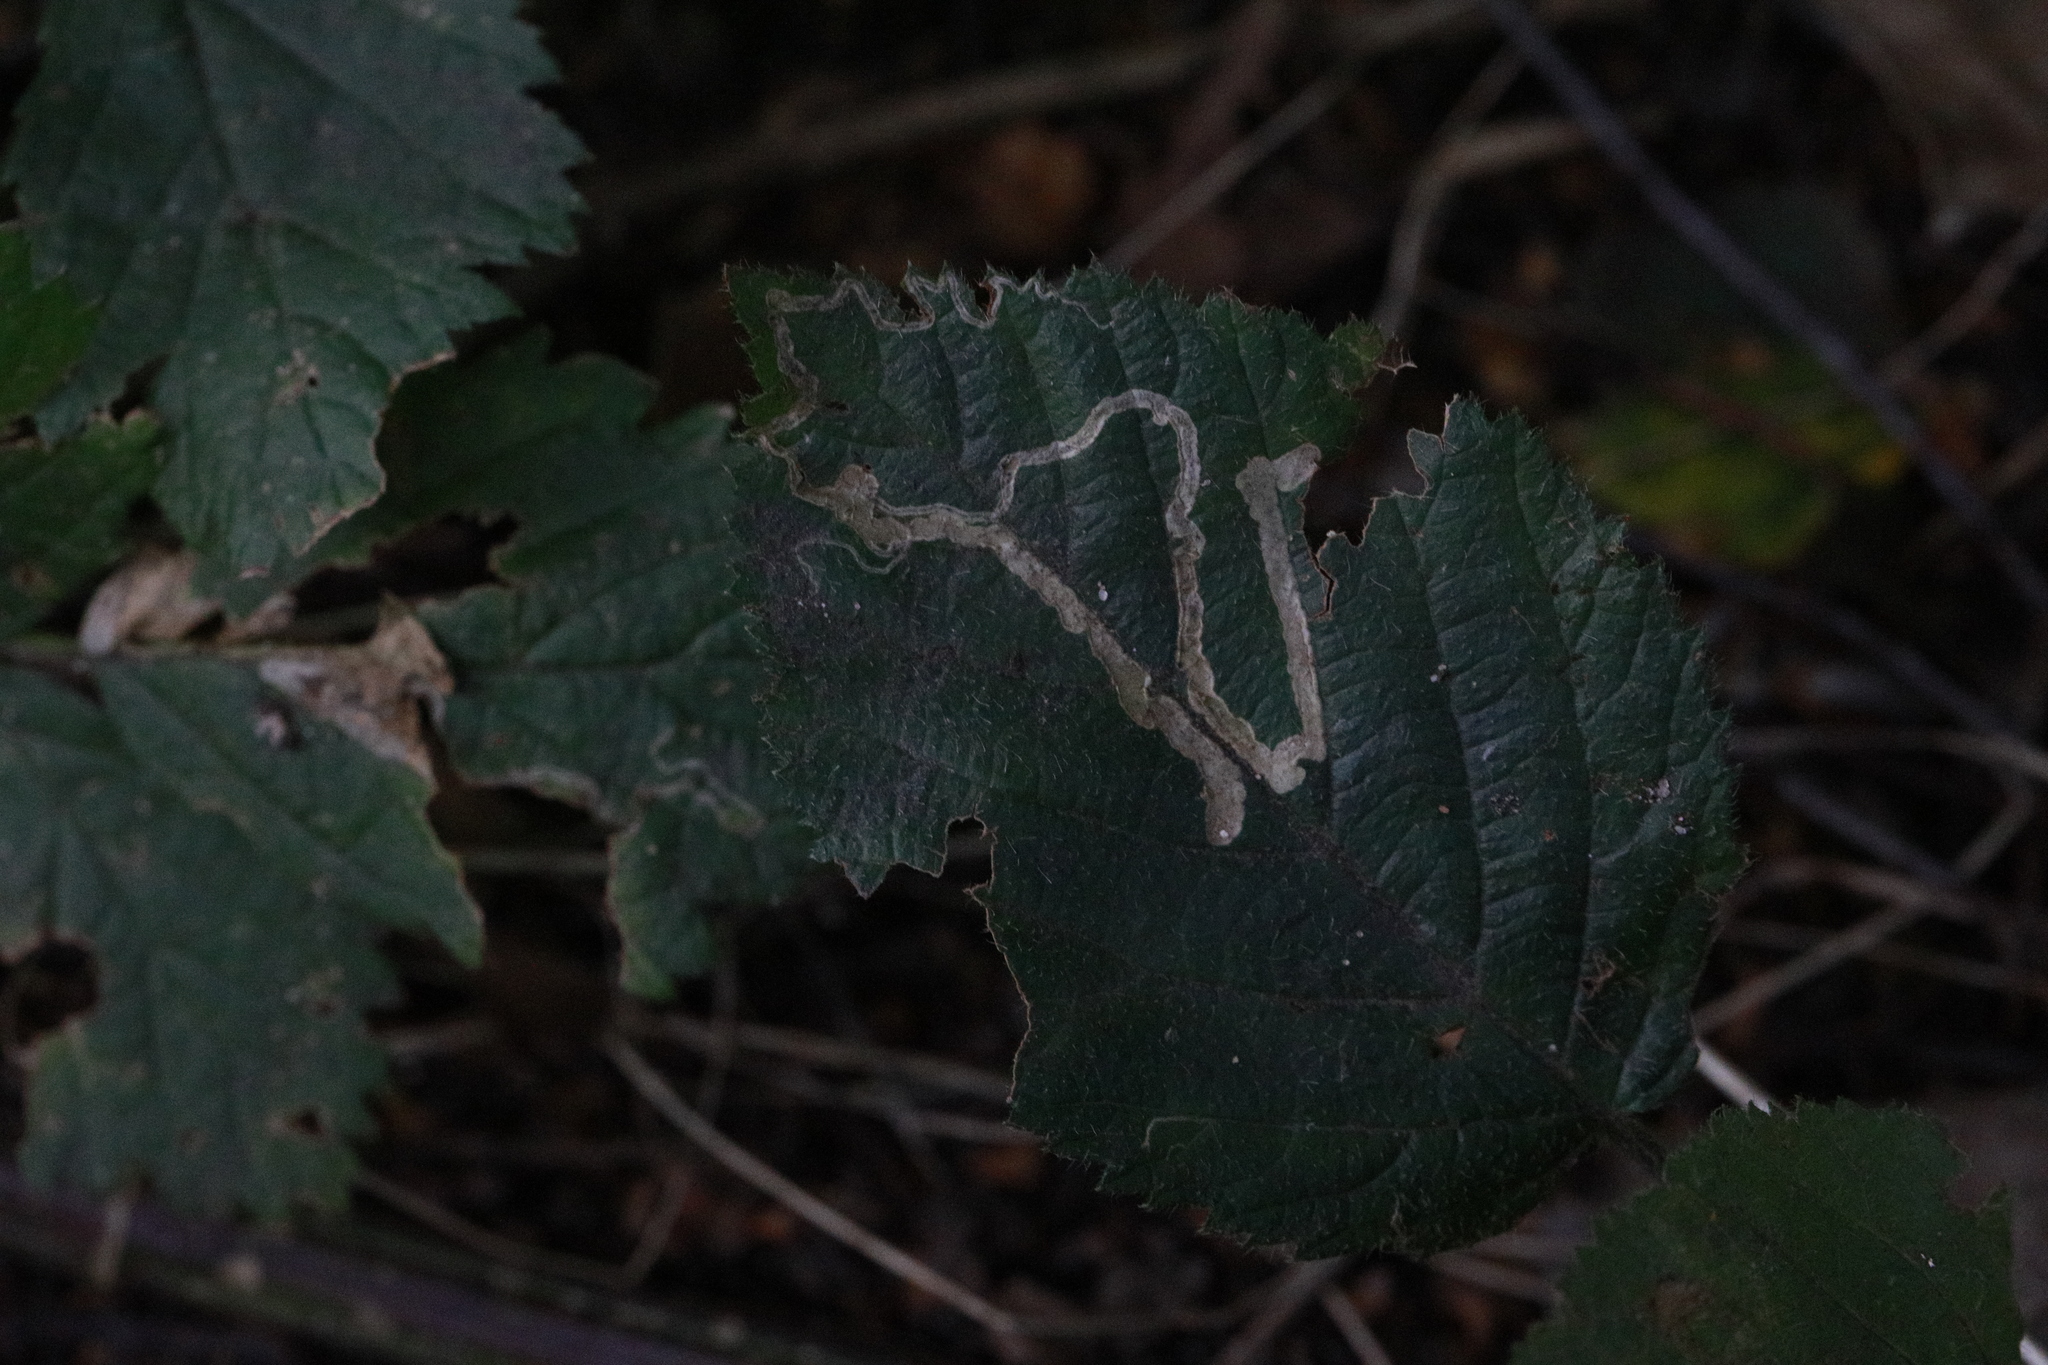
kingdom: Animalia
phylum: Arthropoda
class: Insecta
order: Lepidoptera
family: Nepticulidae
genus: Stigmella
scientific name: Stigmella aurella
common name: Golden pigmy
